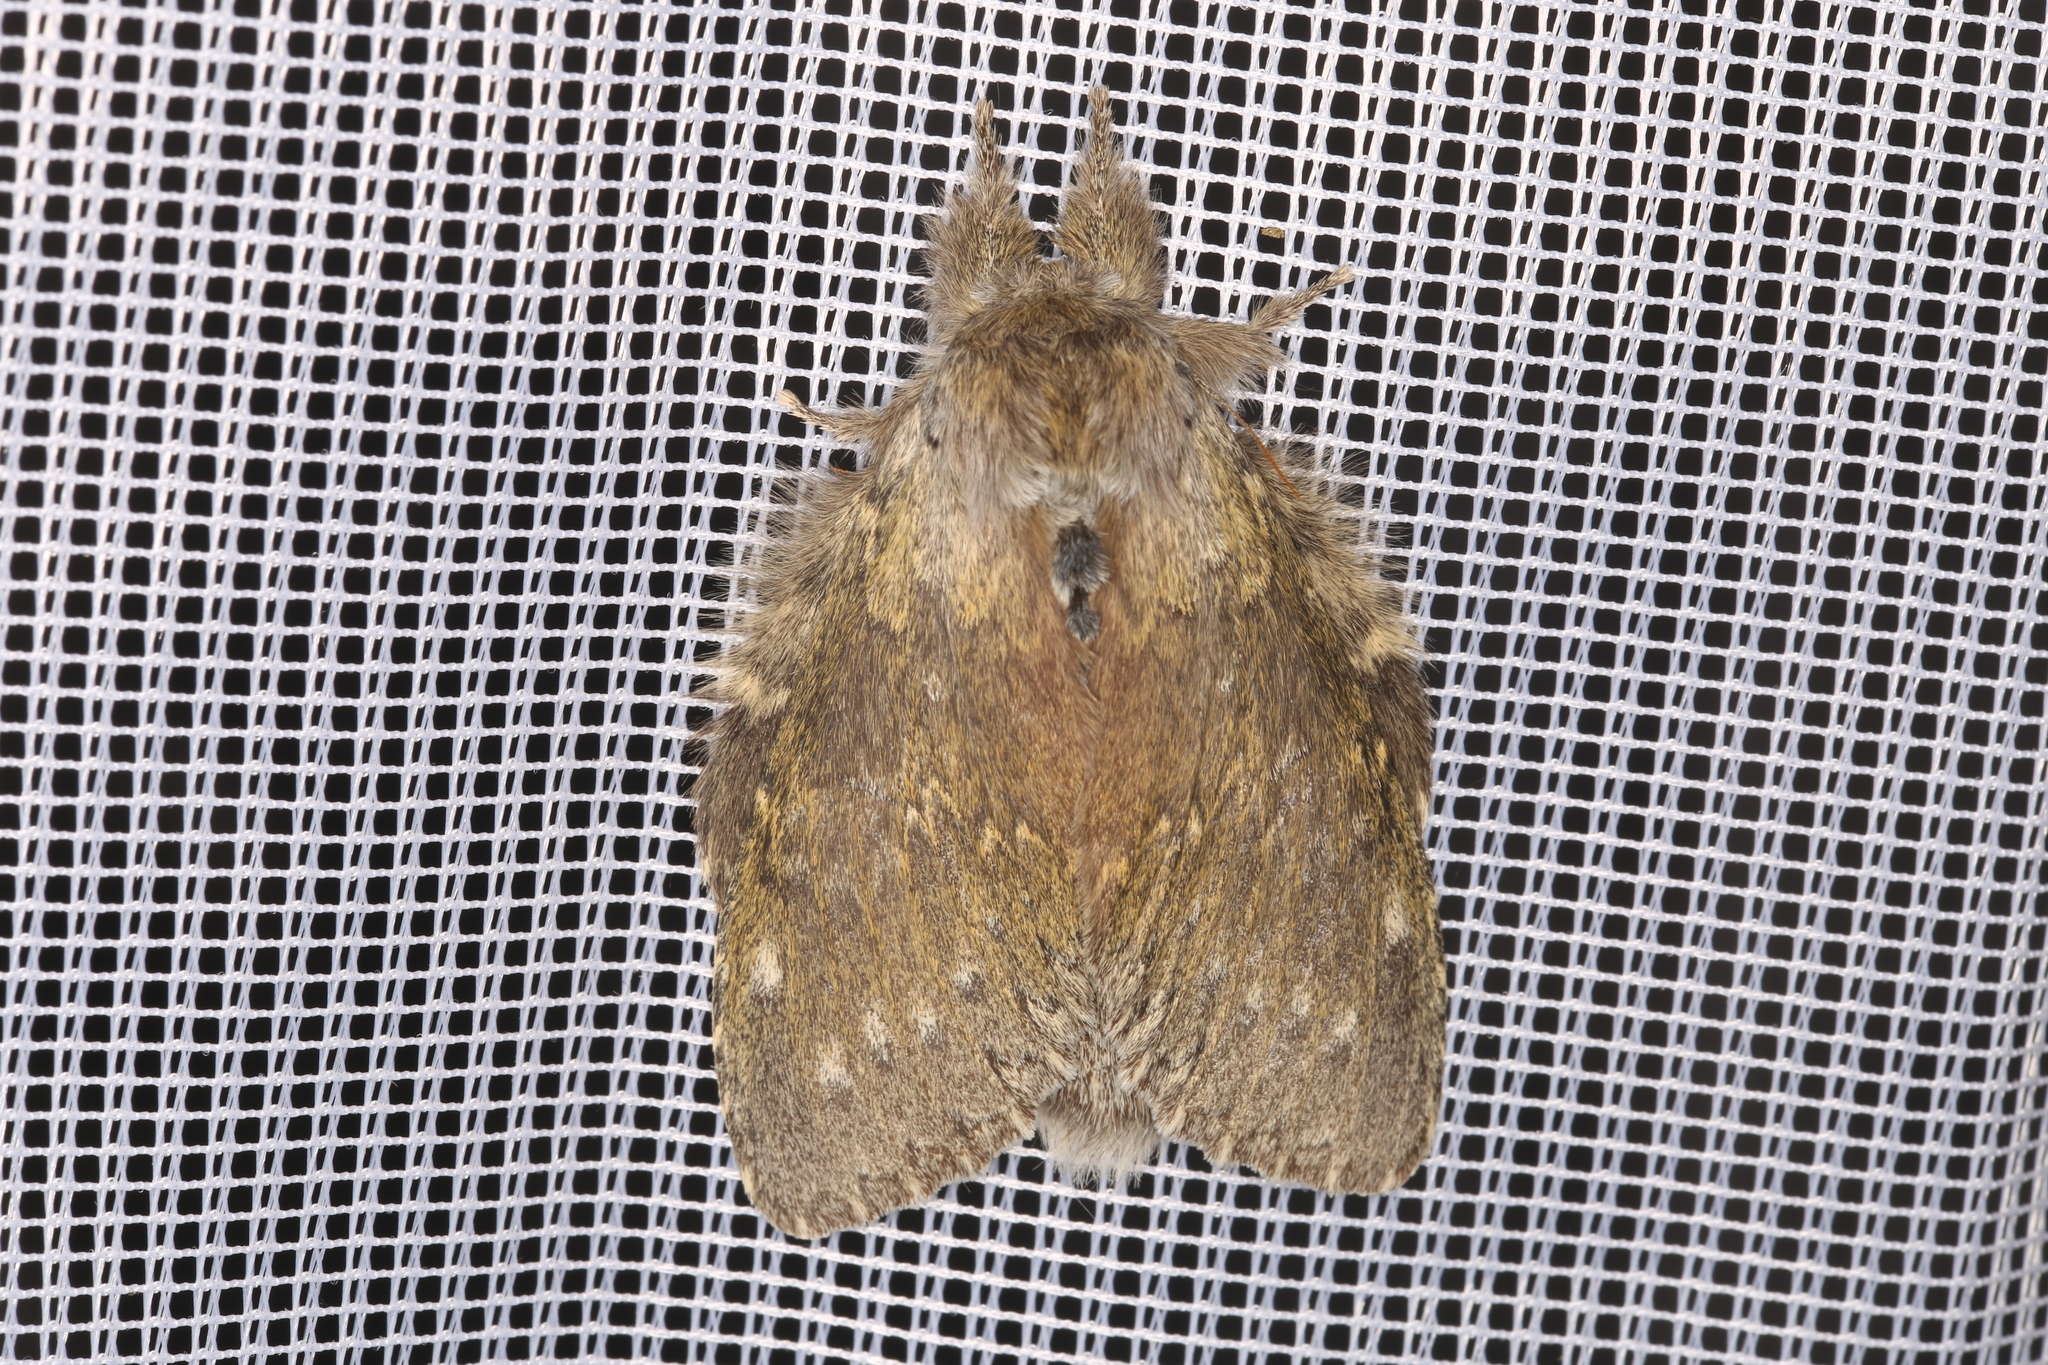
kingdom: Animalia
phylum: Arthropoda
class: Insecta
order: Lepidoptera
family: Notodontidae
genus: Stauropus
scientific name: Stauropus fagi
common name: Lobster moth
